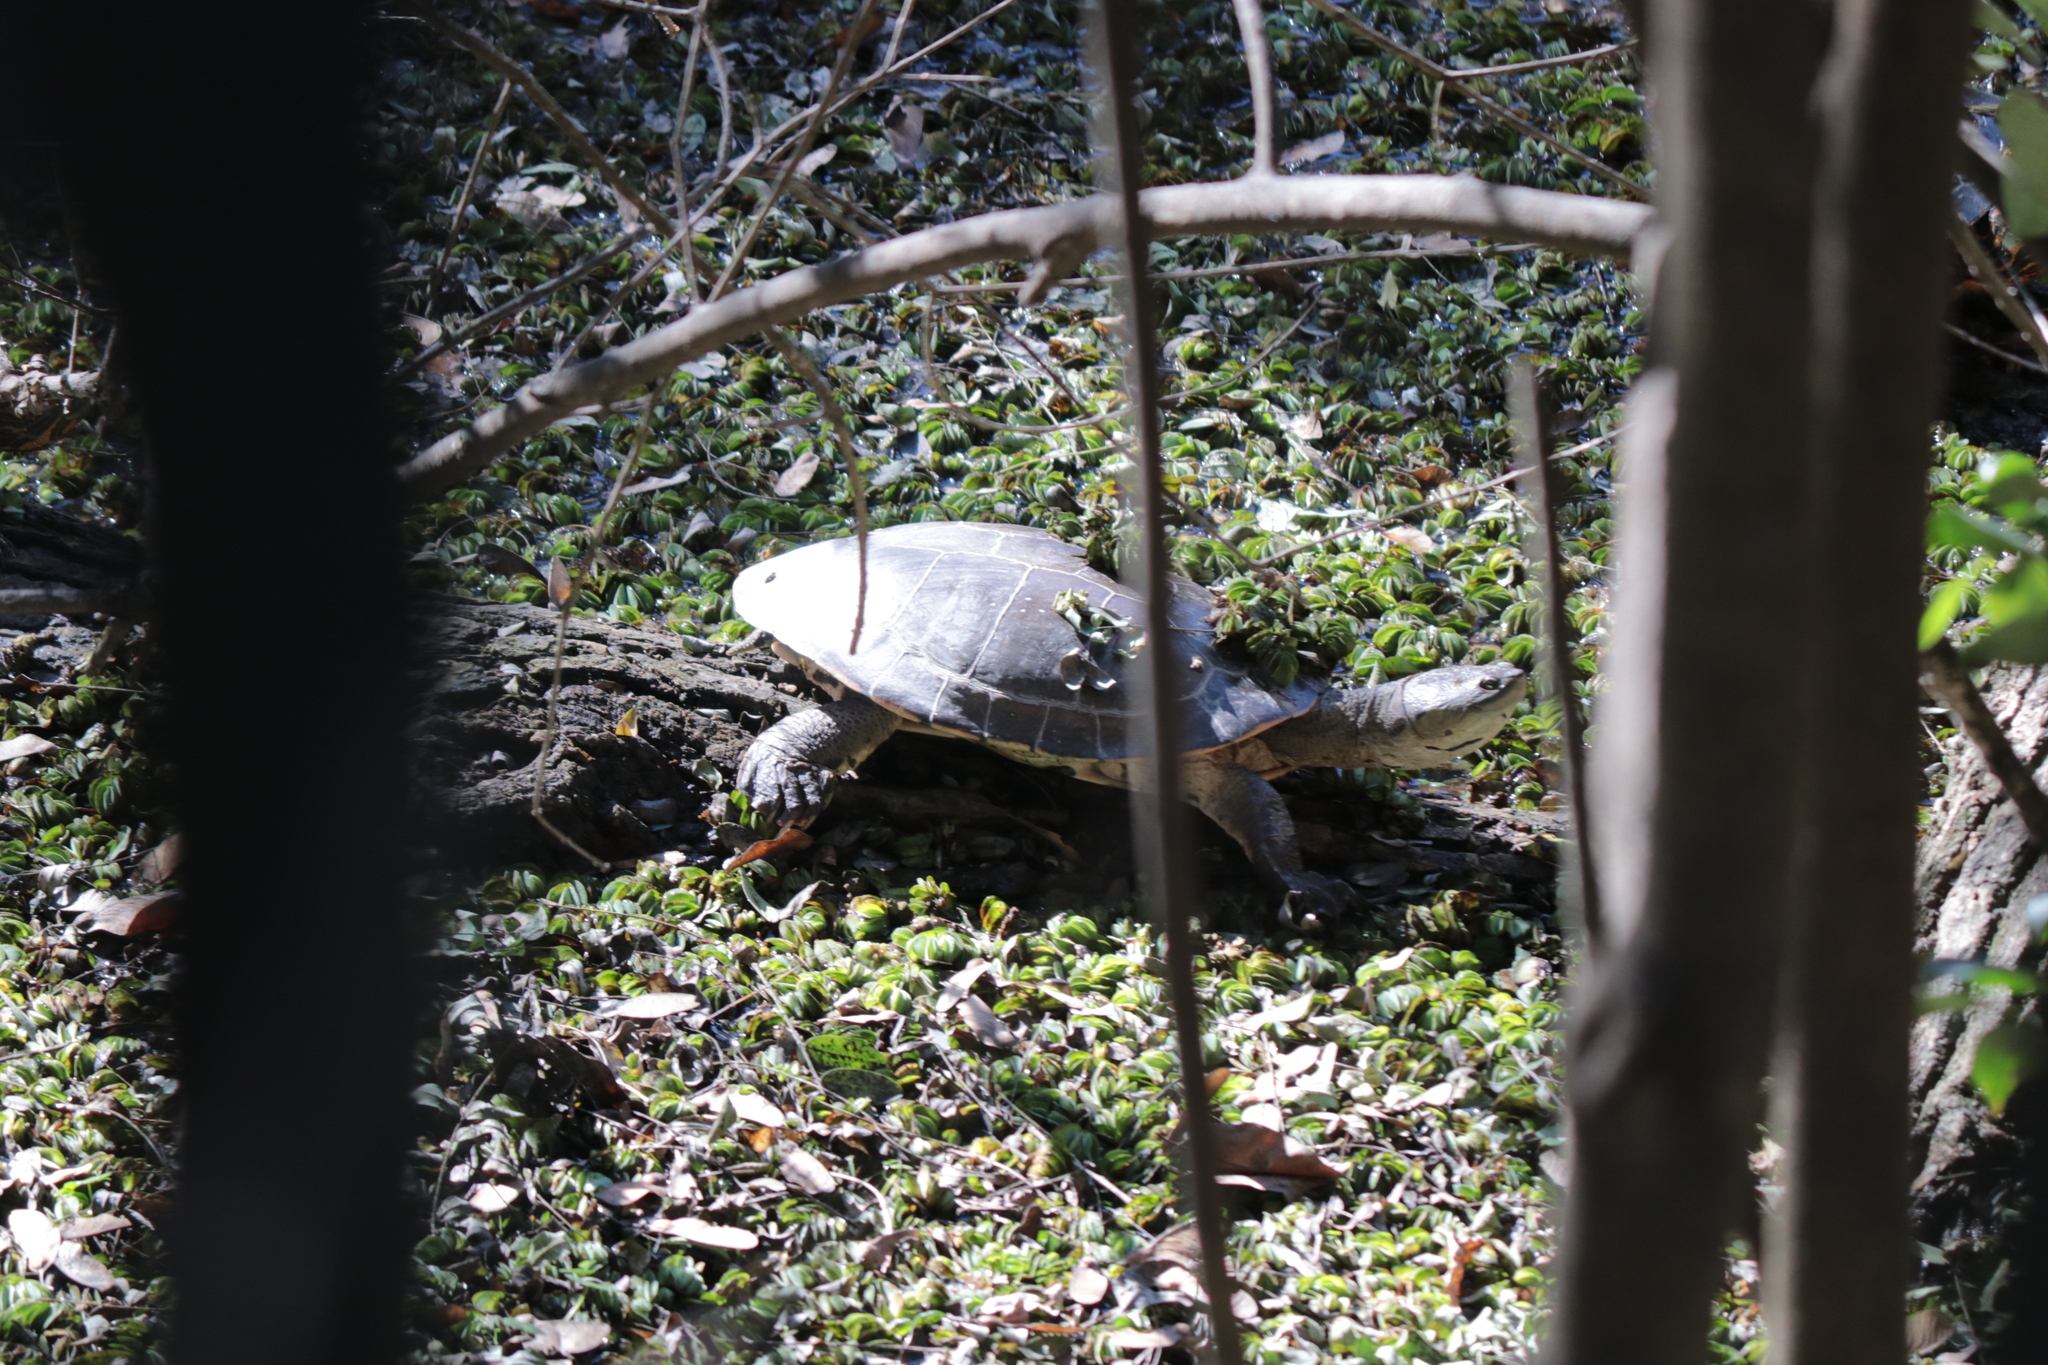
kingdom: Animalia
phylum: Chordata
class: Testudines
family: Chelidae
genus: Phrynops
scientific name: Phrynops hilarii
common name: Side-necked turtle of saint hillaire
